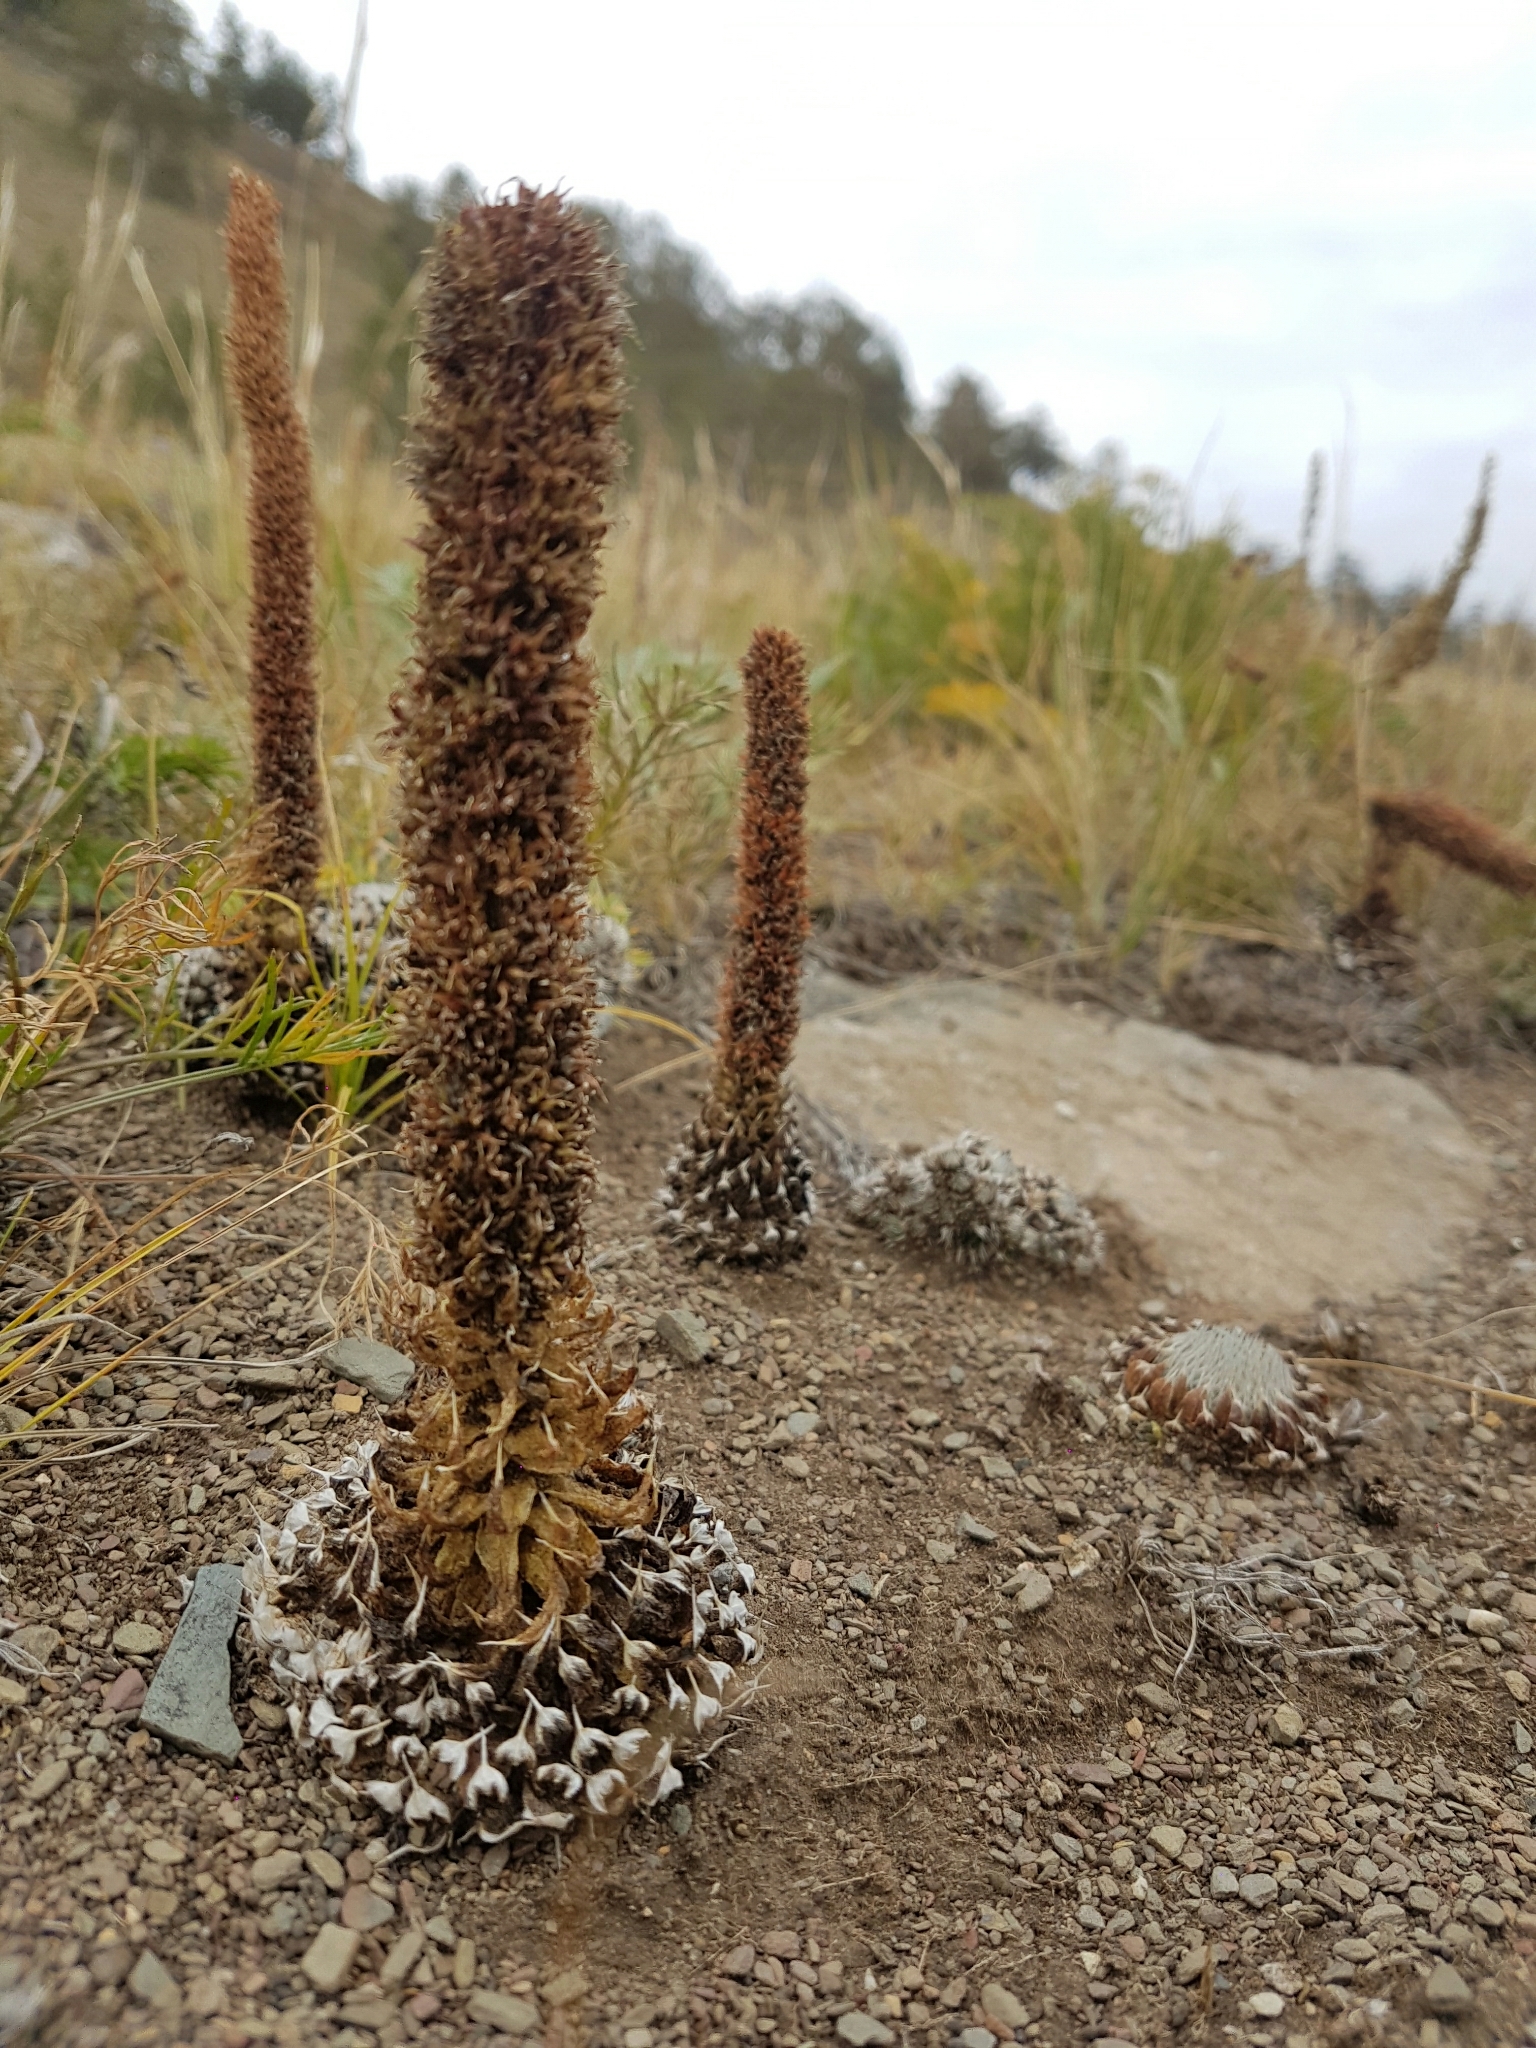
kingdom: Plantae
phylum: Tracheophyta
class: Magnoliopsida
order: Saxifragales
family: Crassulaceae
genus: Orostachys
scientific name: Orostachys spinosa
